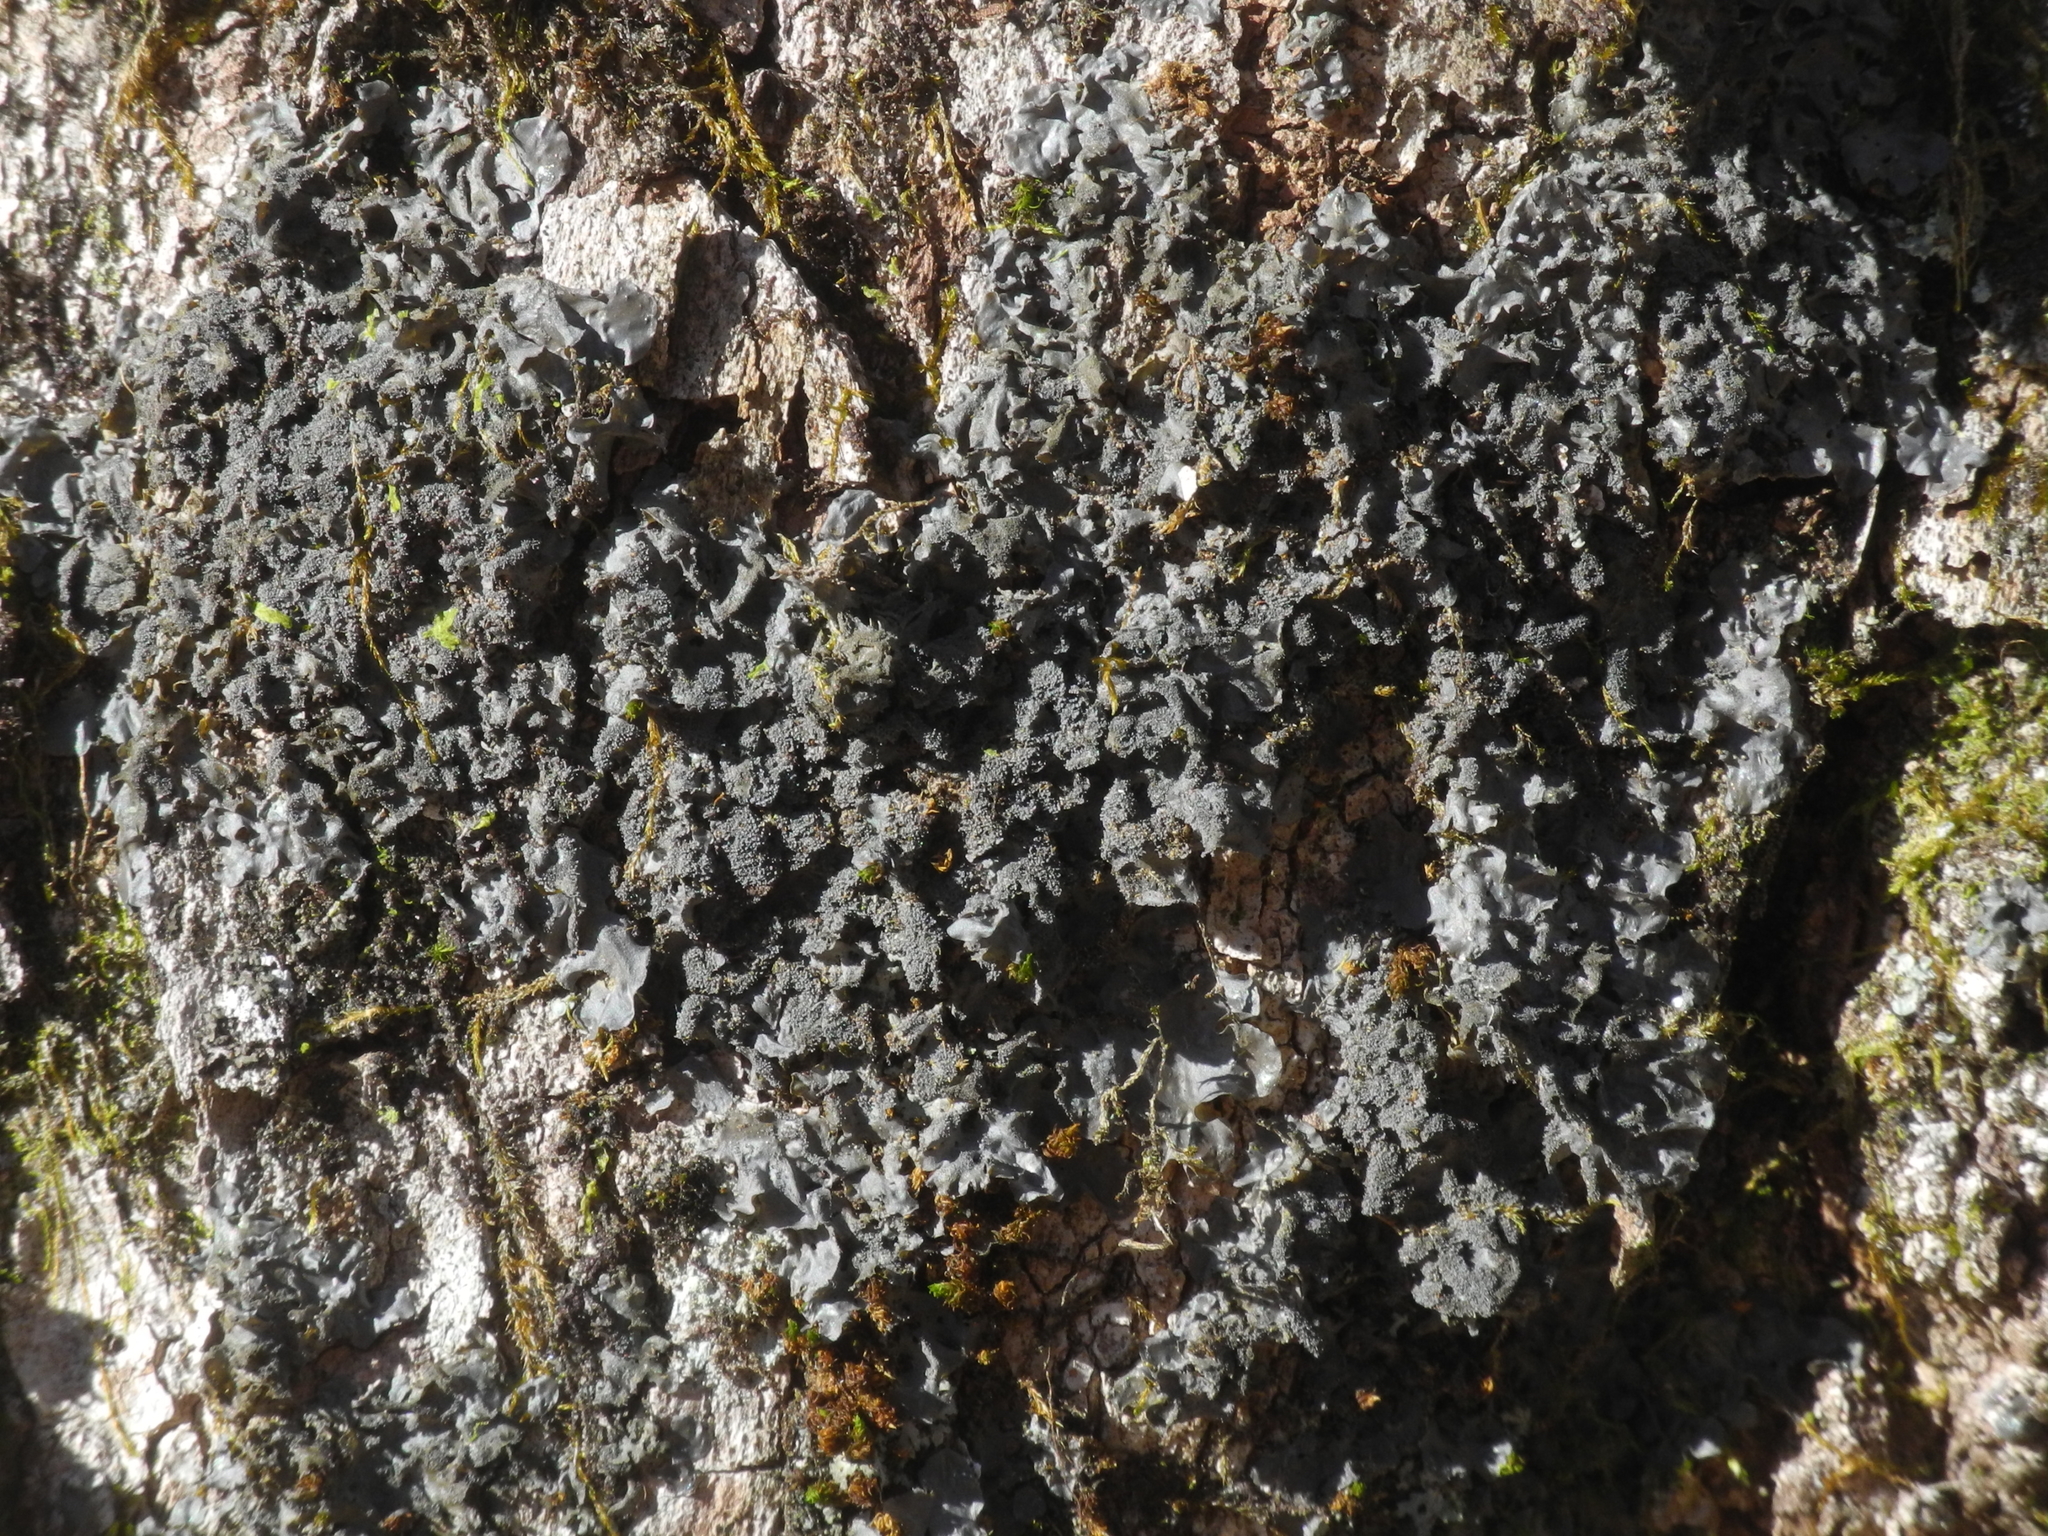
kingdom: Fungi
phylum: Ascomycota
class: Lecanoromycetes
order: Peltigerales
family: Collemataceae
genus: Leptogium
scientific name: Leptogium cyanescens
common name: Blue jellyskin
